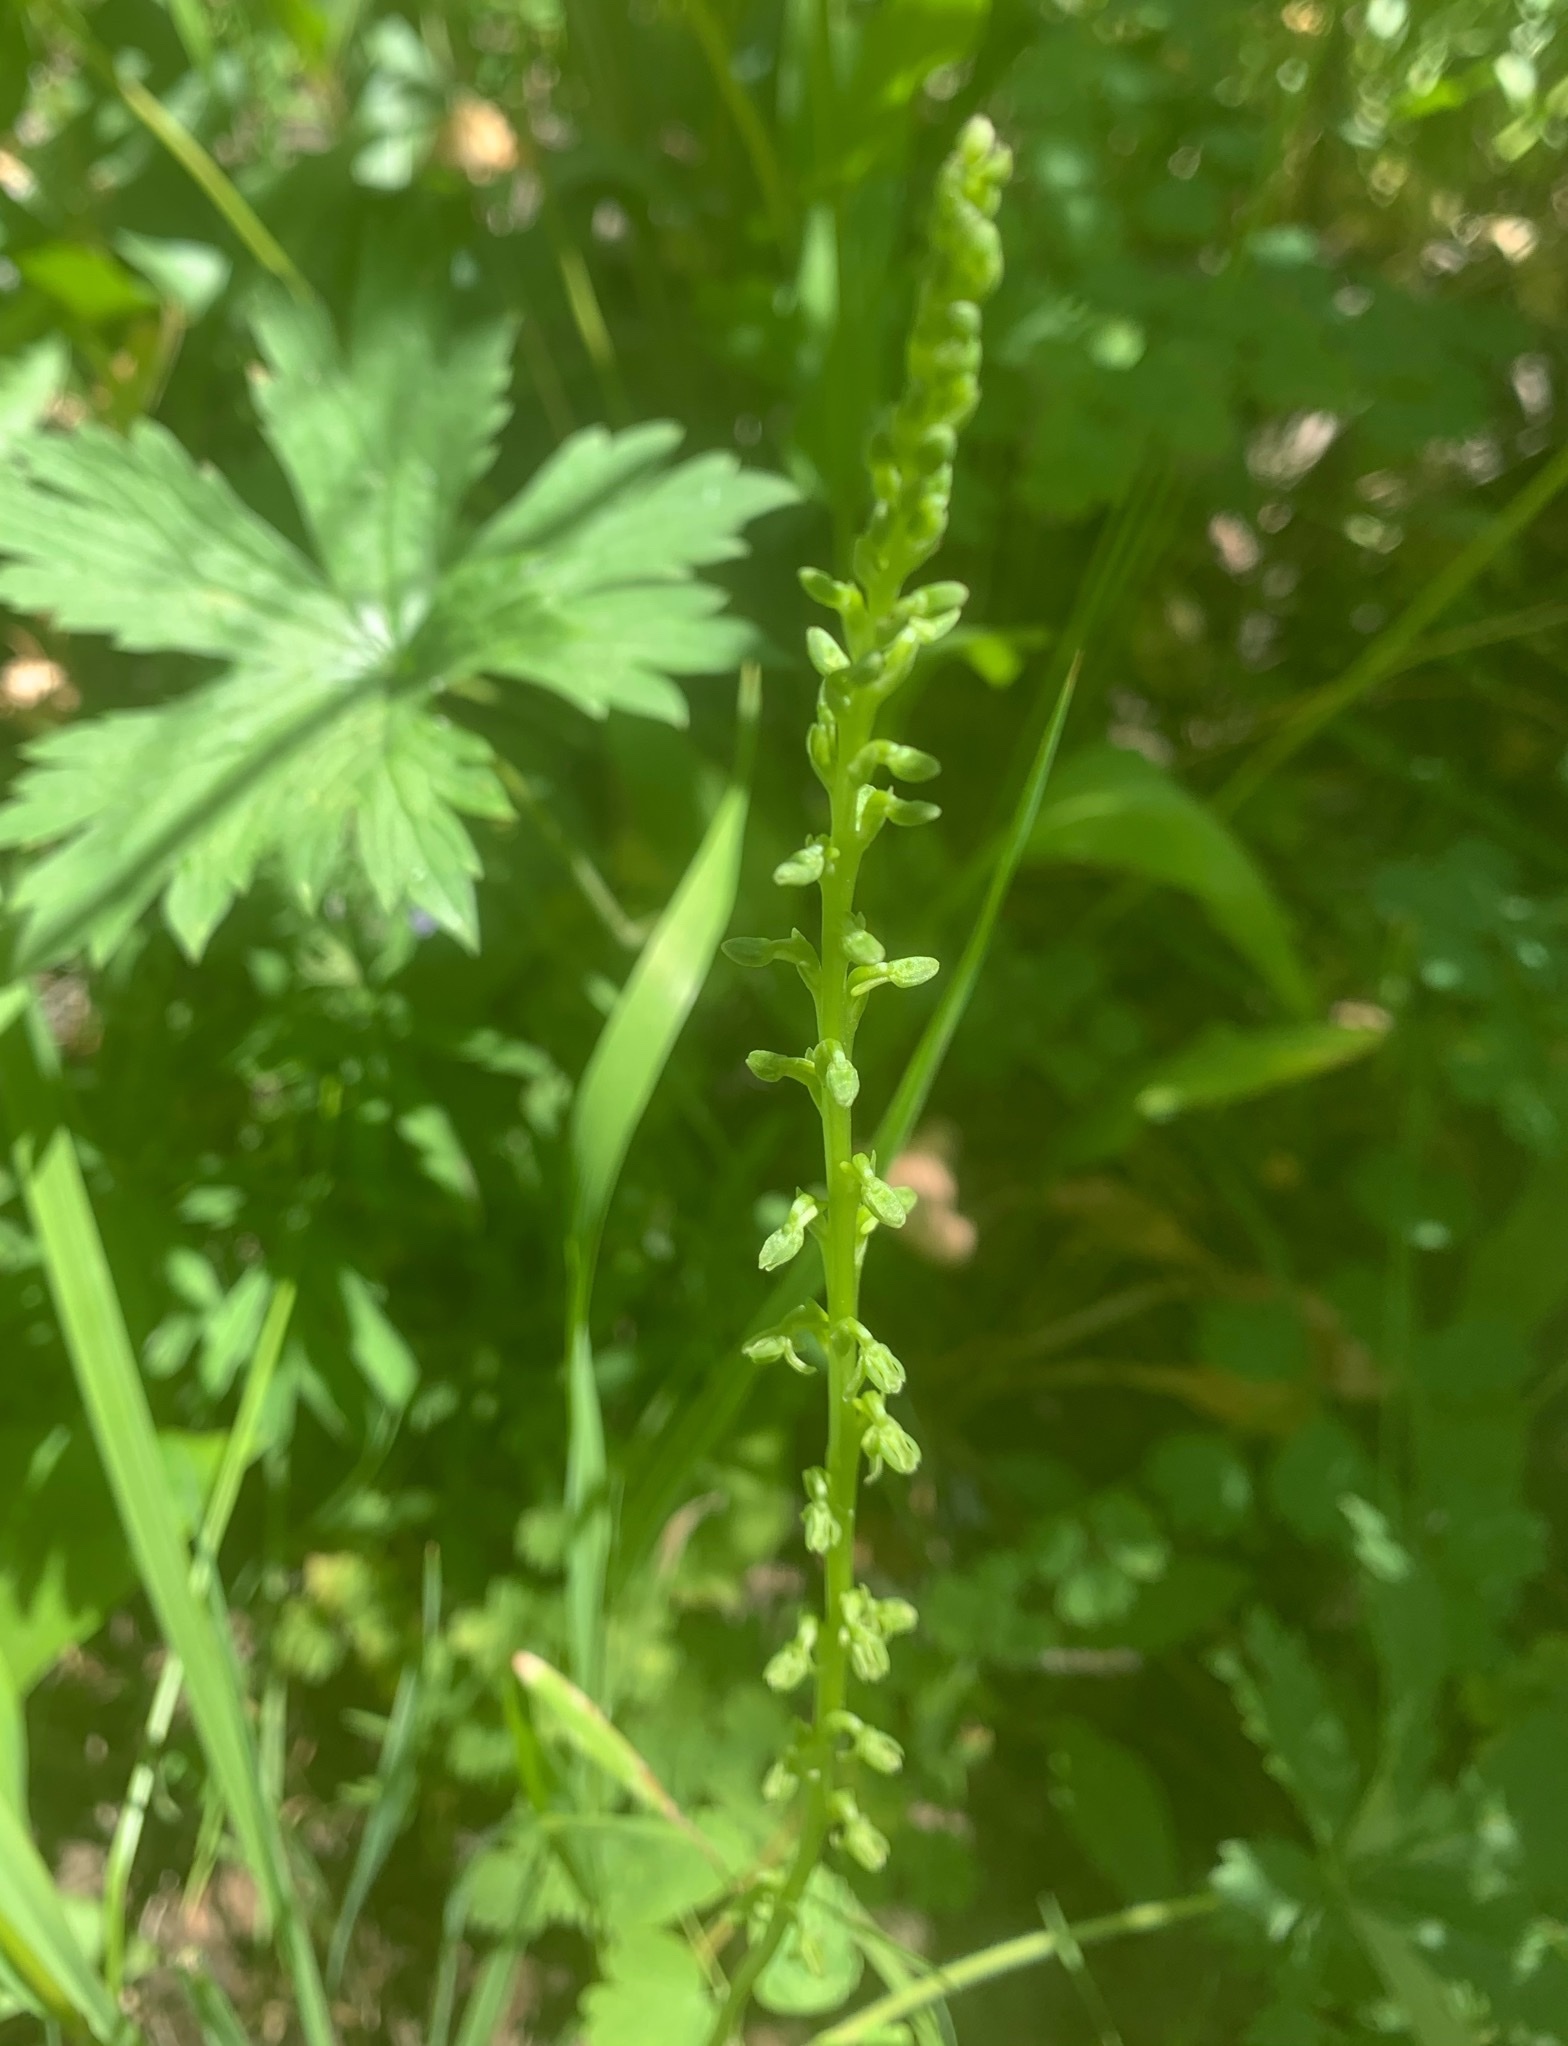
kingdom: Plantae
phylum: Tracheophyta
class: Liliopsida
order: Asparagales
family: Orchidaceae
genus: Platanthera
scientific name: Platanthera unalascensis
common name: Alaska bog orchid
